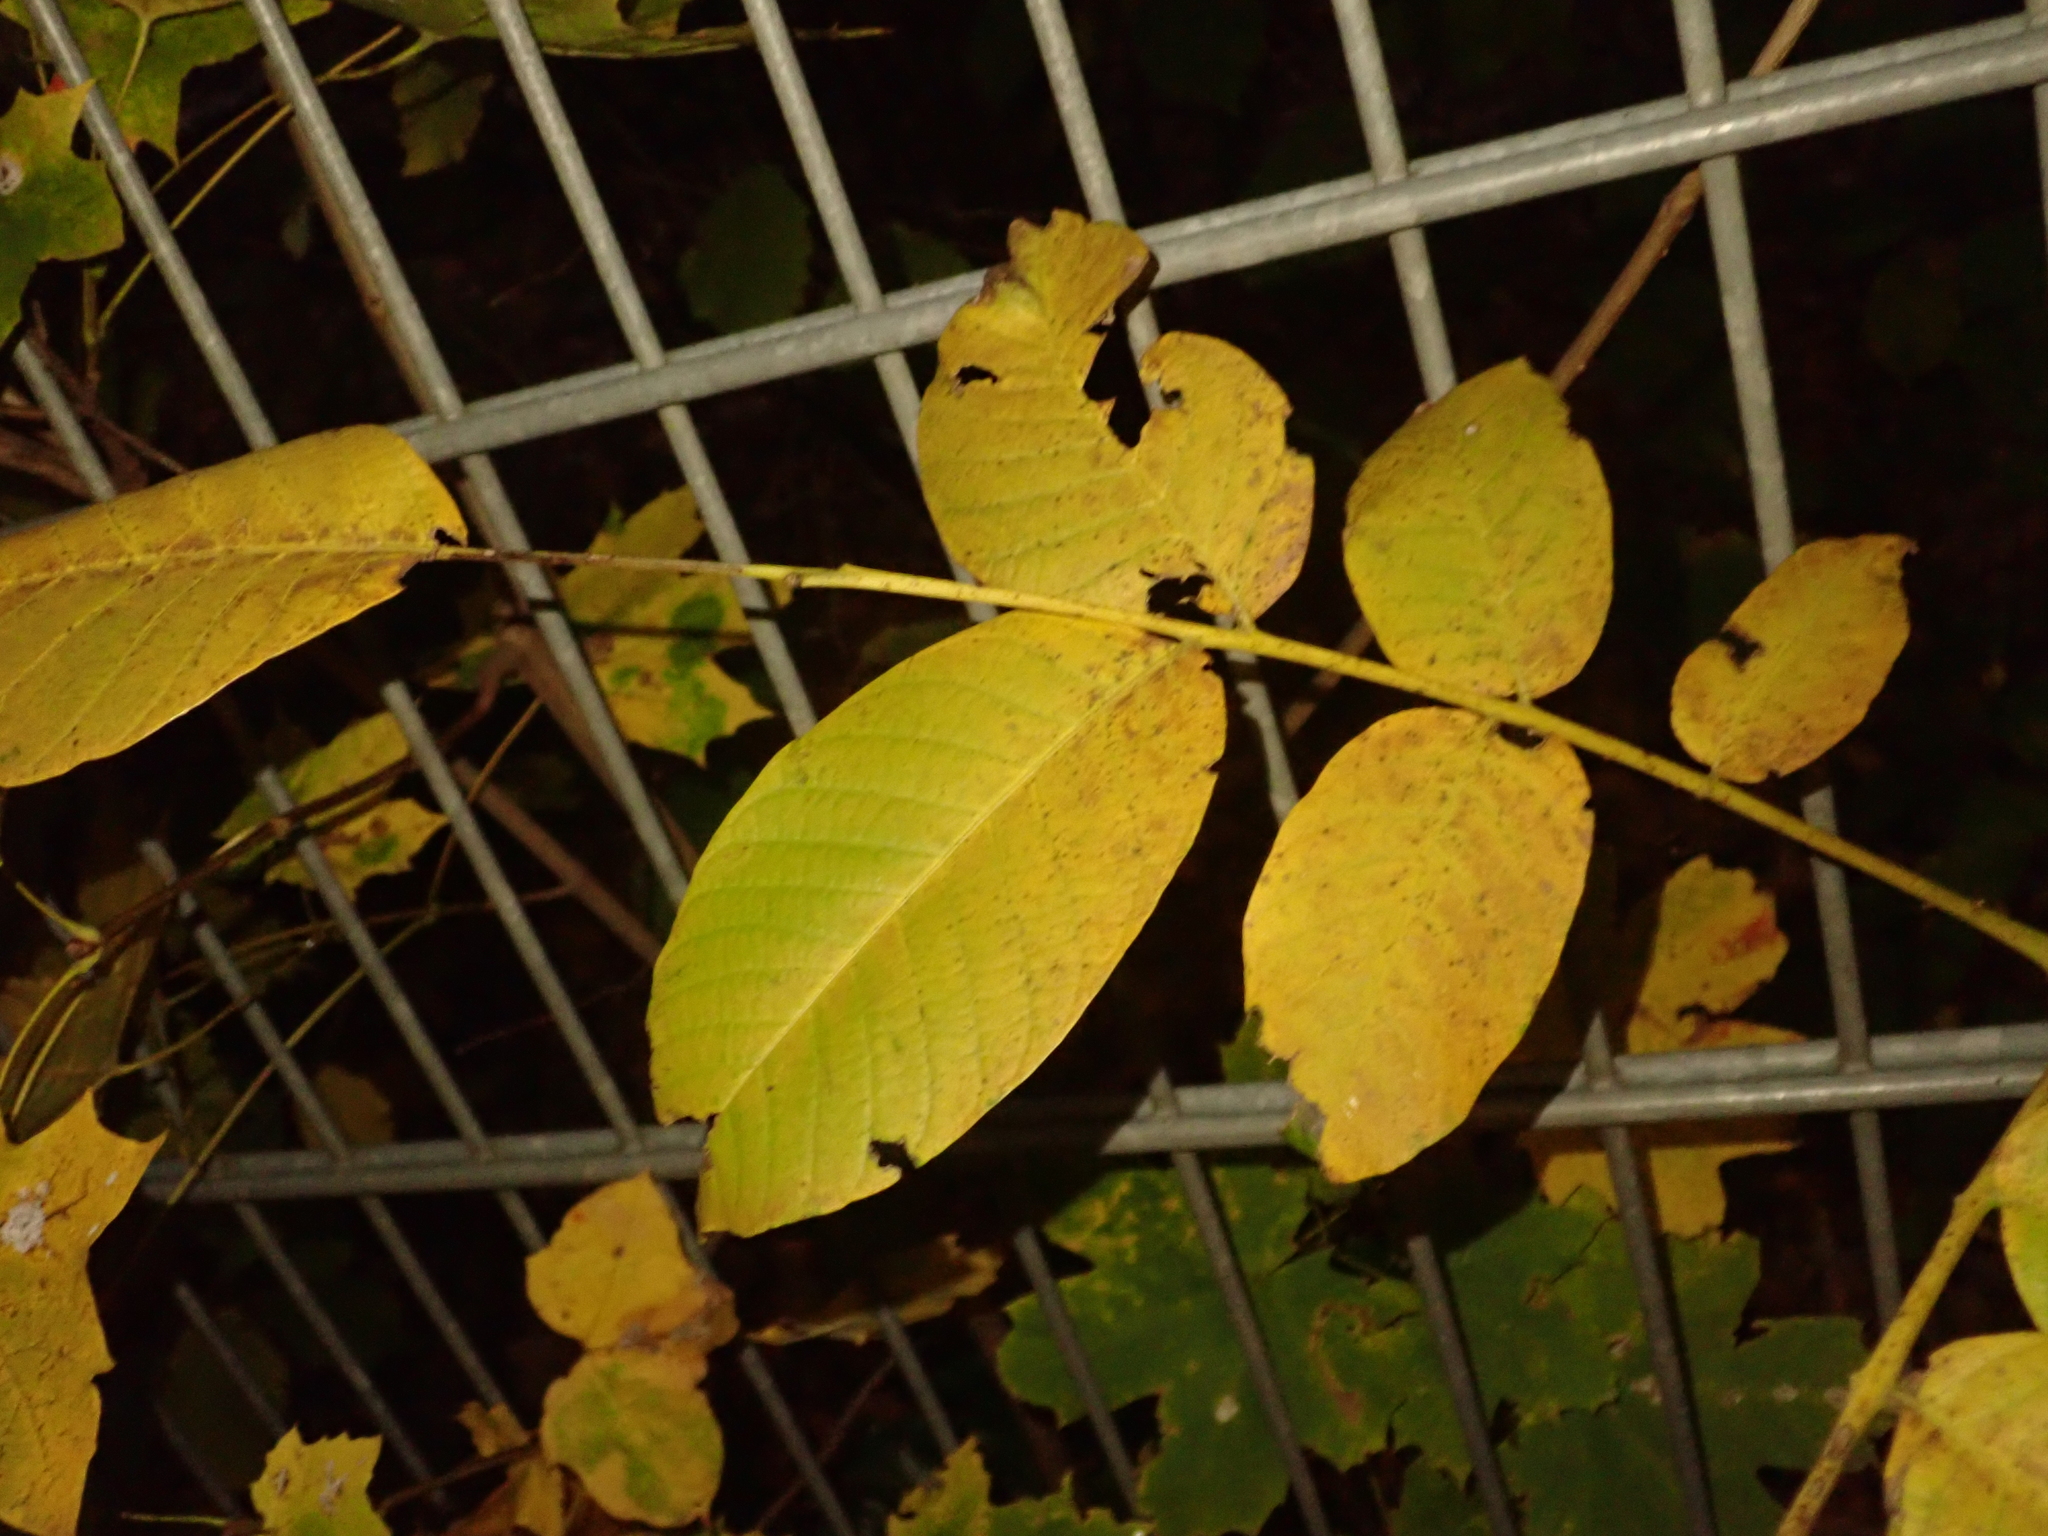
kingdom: Plantae
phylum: Tracheophyta
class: Magnoliopsida
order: Fagales
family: Juglandaceae
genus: Juglans
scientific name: Juglans regia
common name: Walnut
